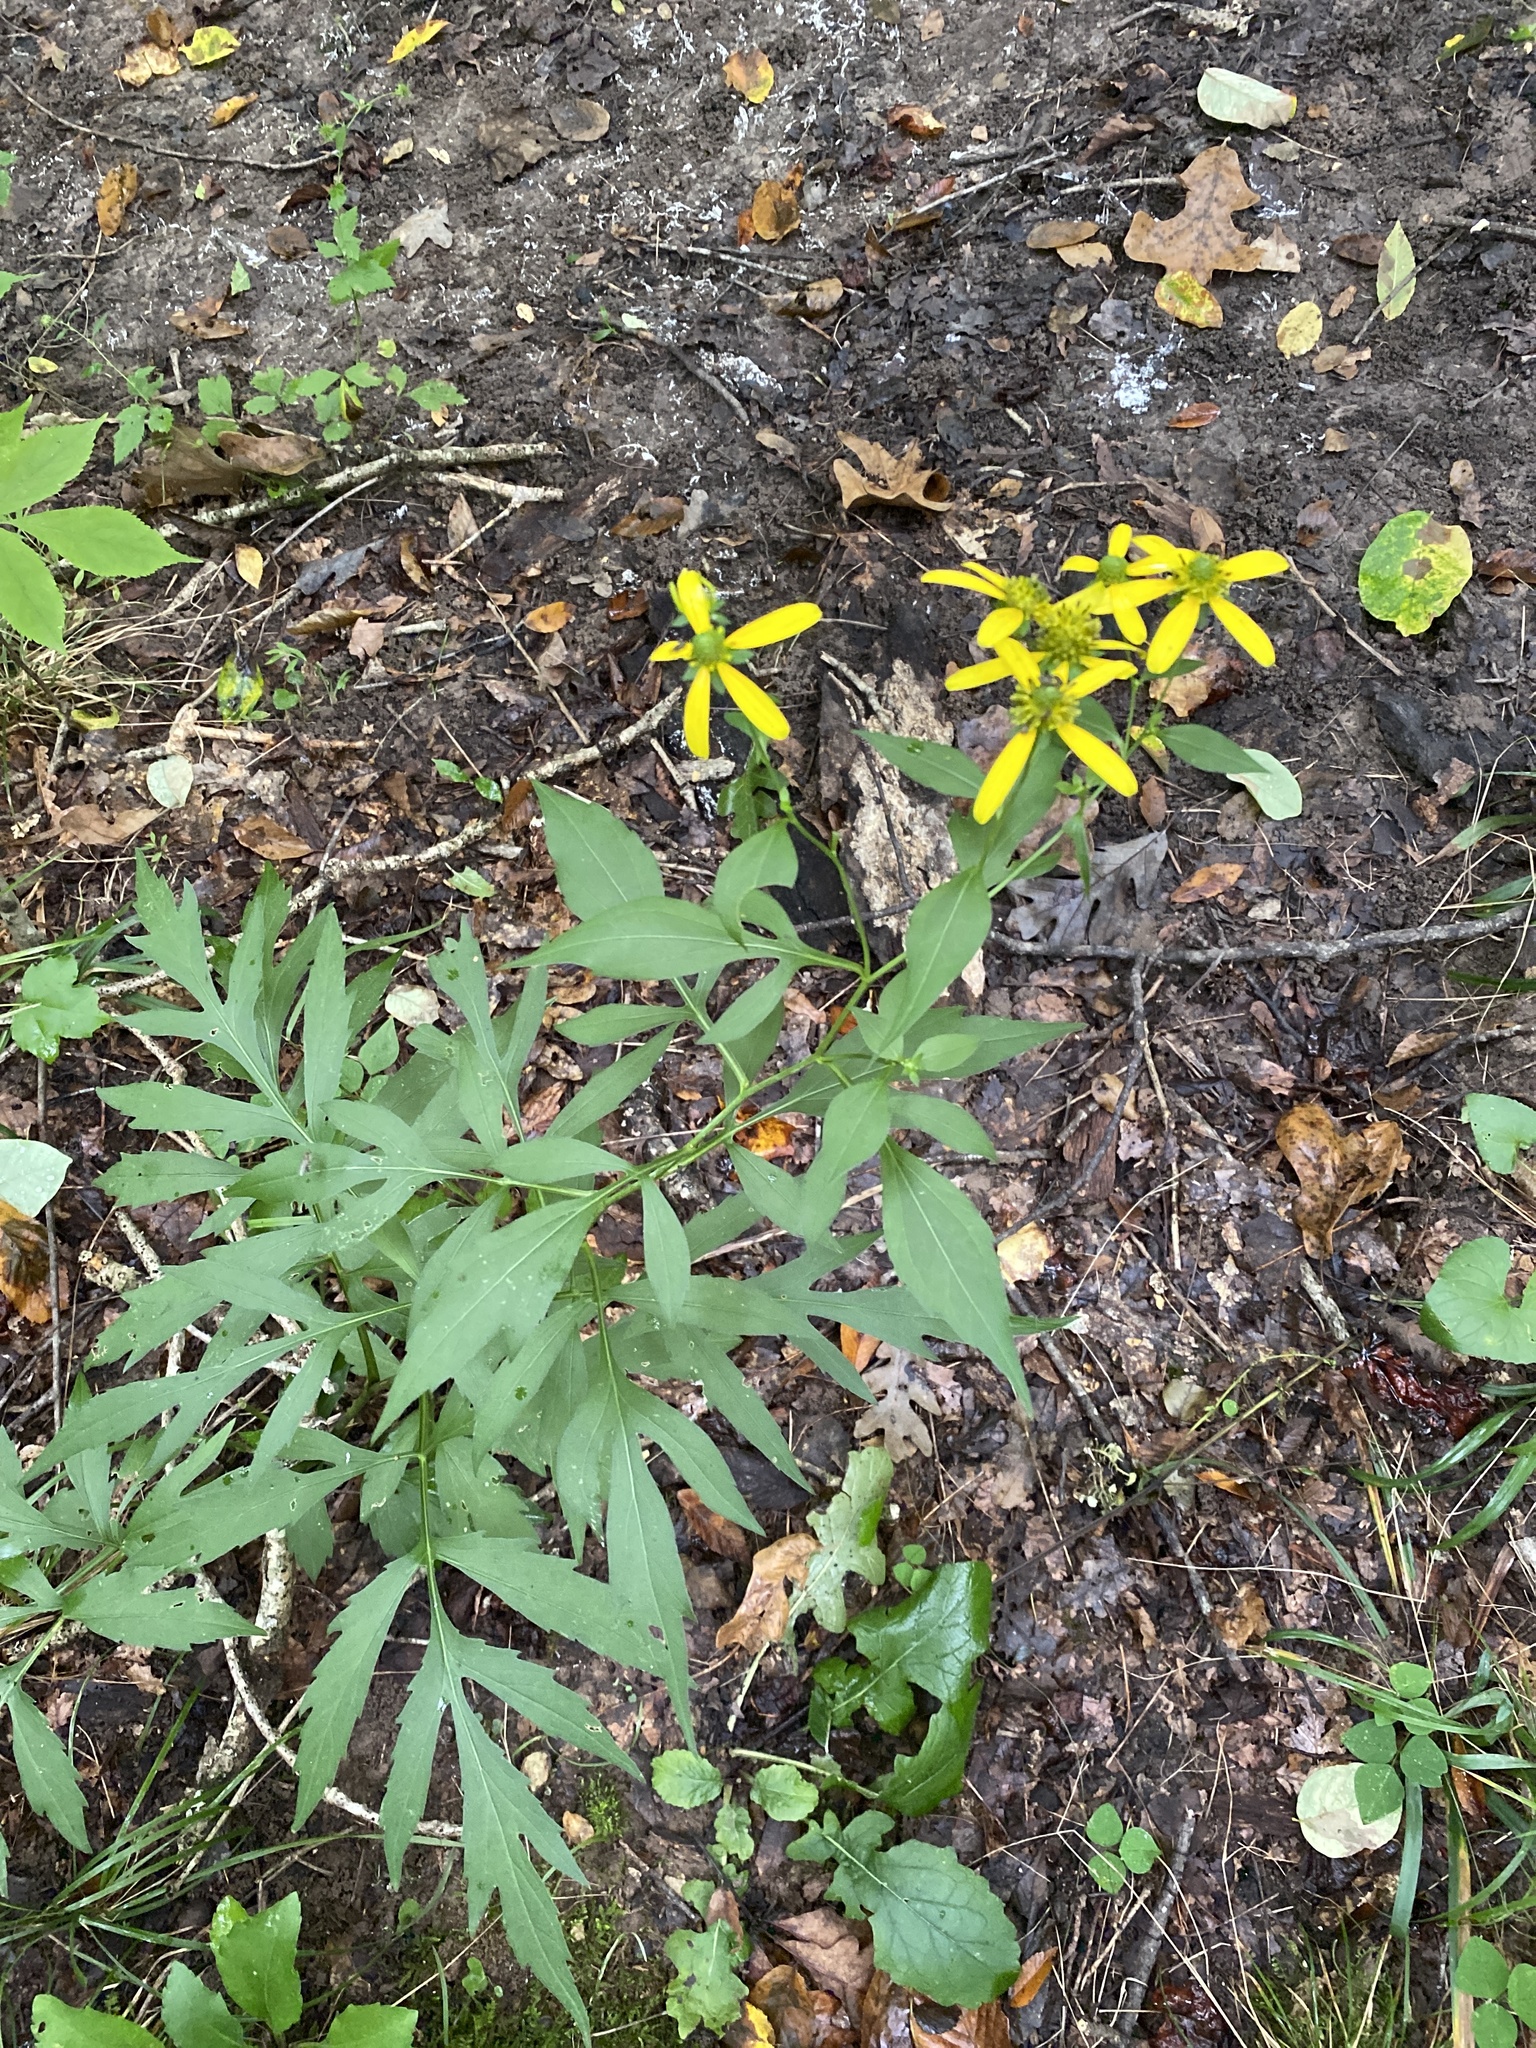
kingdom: Plantae
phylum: Tracheophyta
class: Magnoliopsida
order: Asterales
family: Asteraceae
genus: Rudbeckia
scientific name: Rudbeckia laciniata
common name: Coneflower
